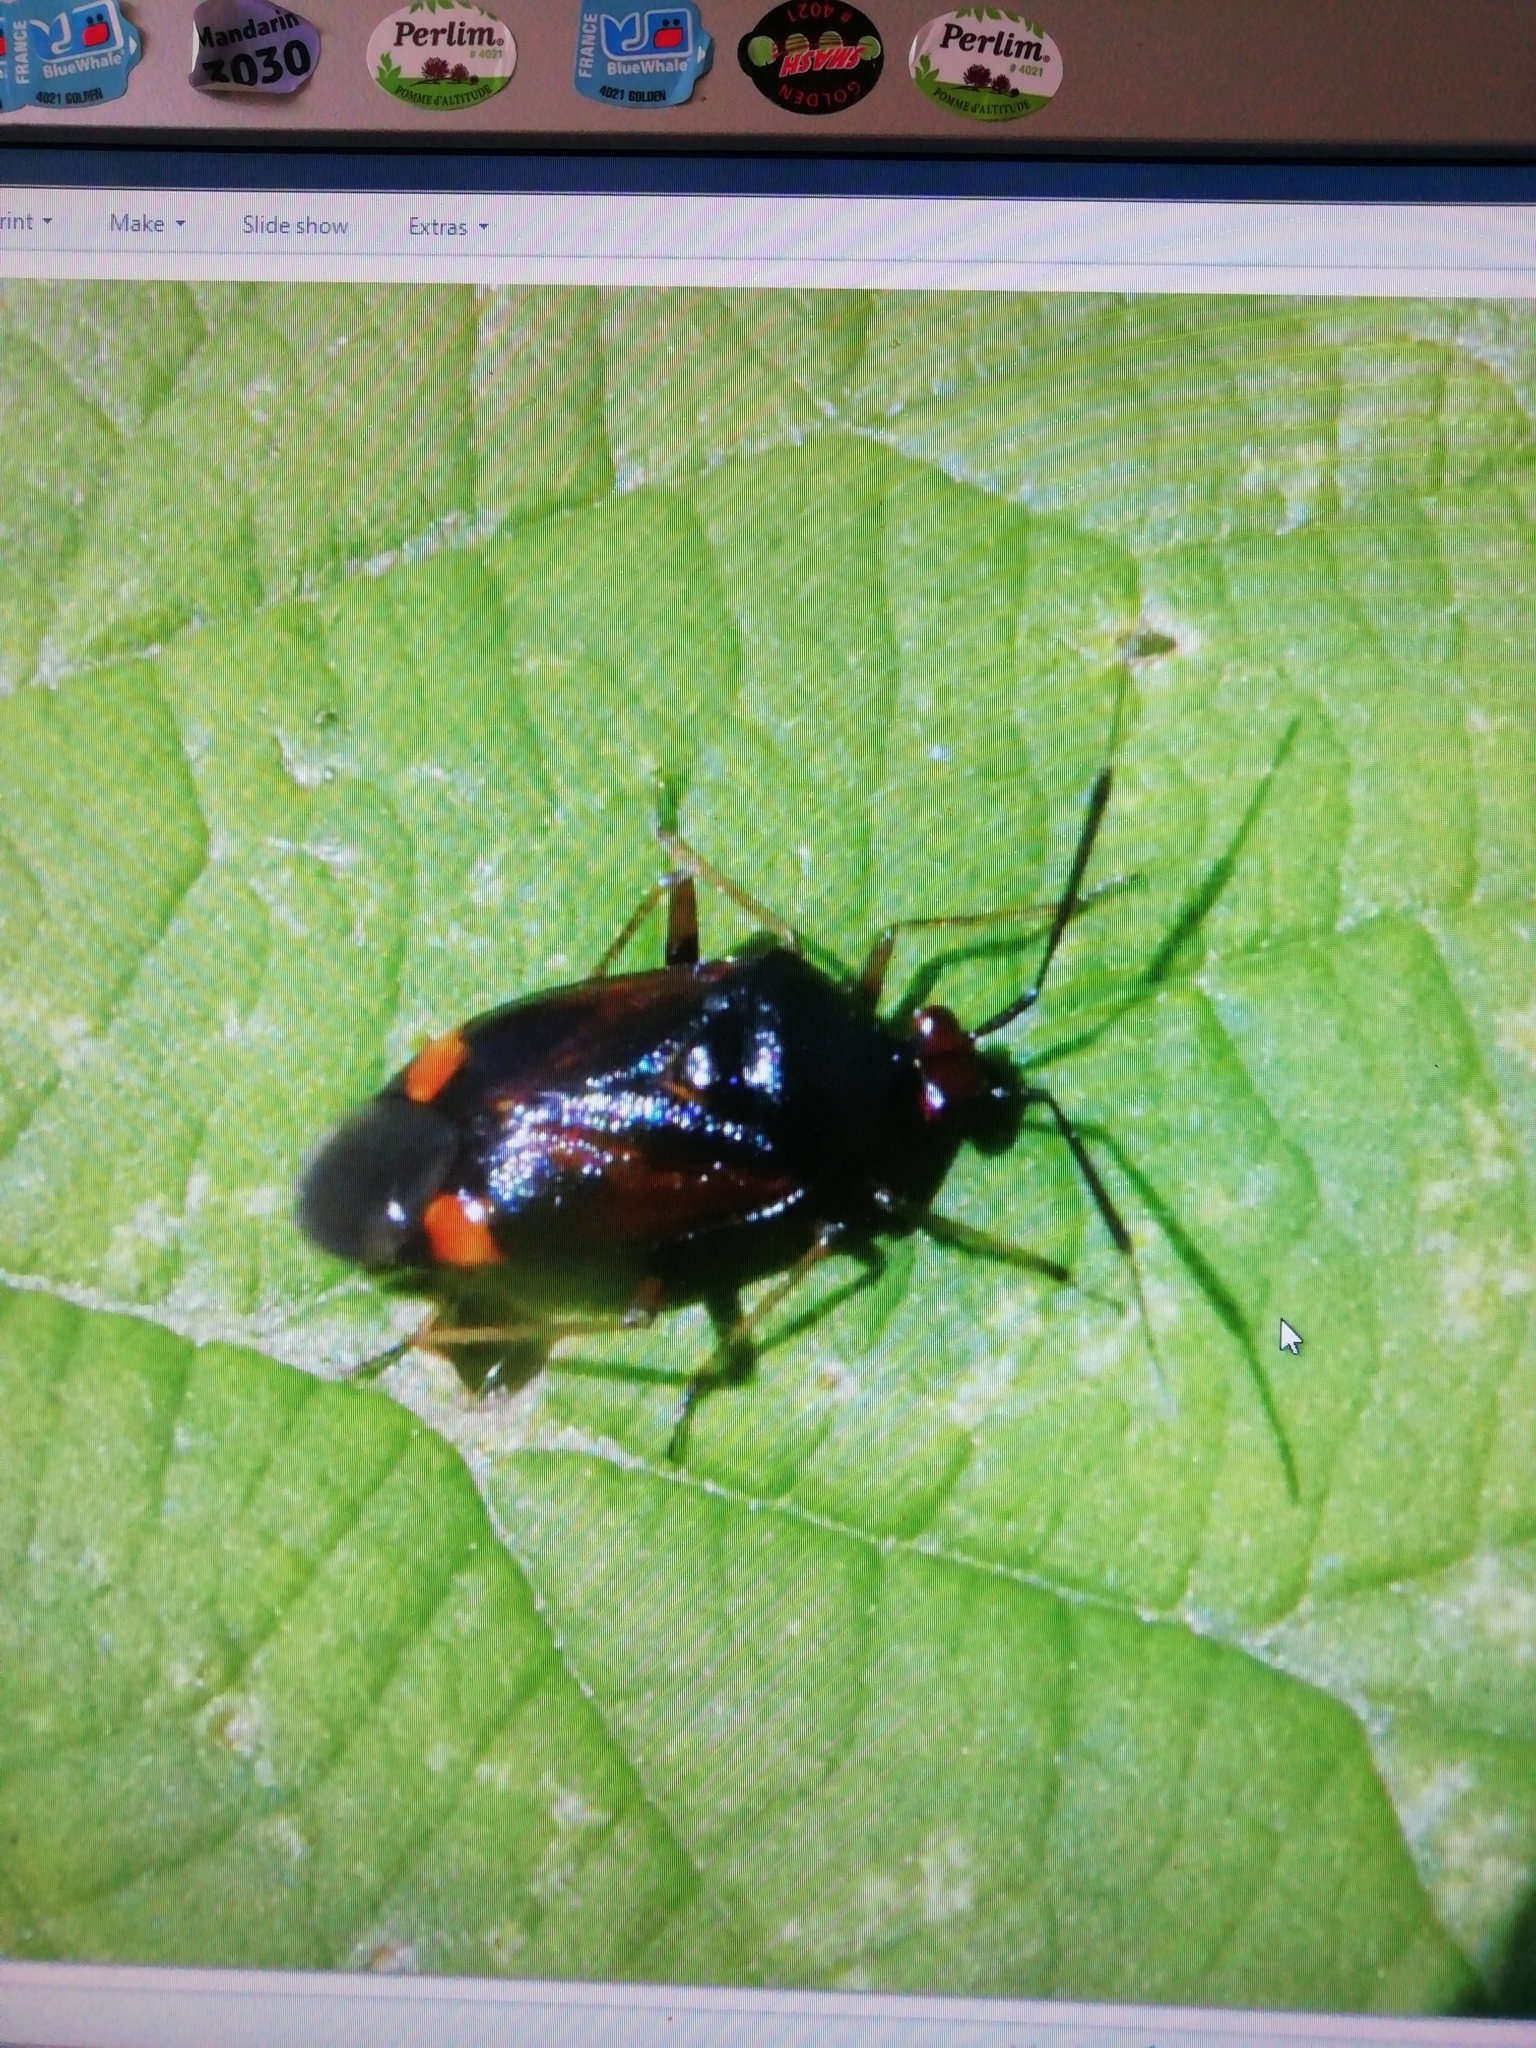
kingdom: Animalia
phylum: Arthropoda
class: Insecta
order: Hemiptera
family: Miridae
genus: Deraeocoris
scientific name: Deraeocoris ruber
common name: Plant bug
